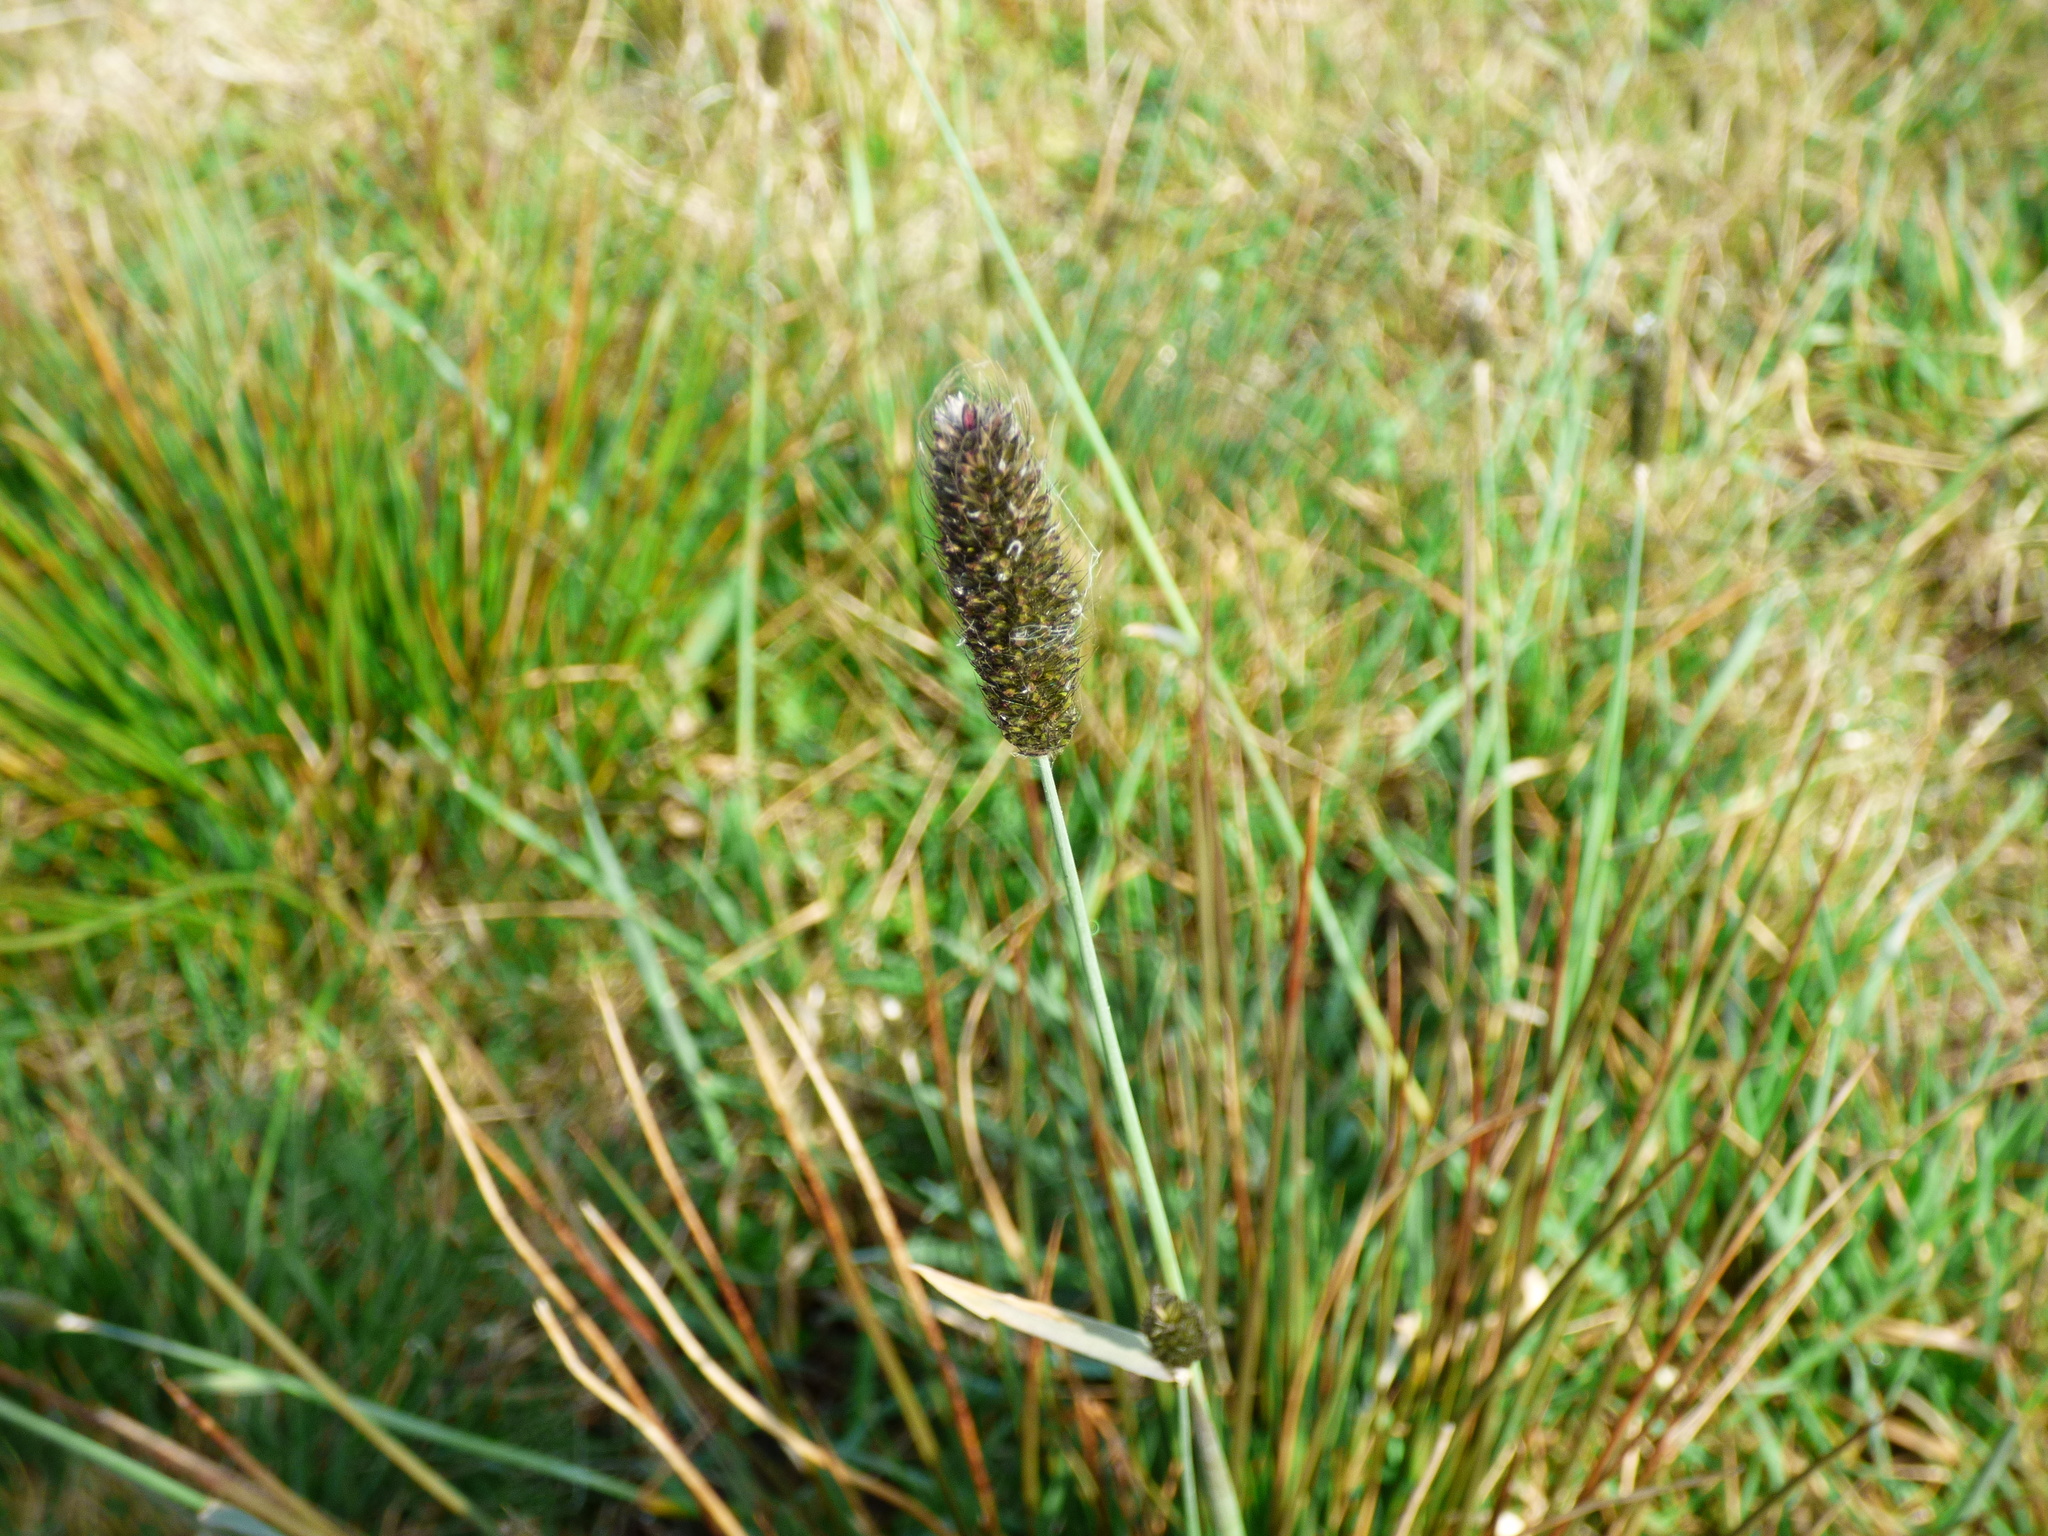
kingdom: Plantae
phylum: Tracheophyta
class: Liliopsida
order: Poales
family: Poaceae
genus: Alopecurus
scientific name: Alopecurus pratensis
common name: Meadow foxtail
